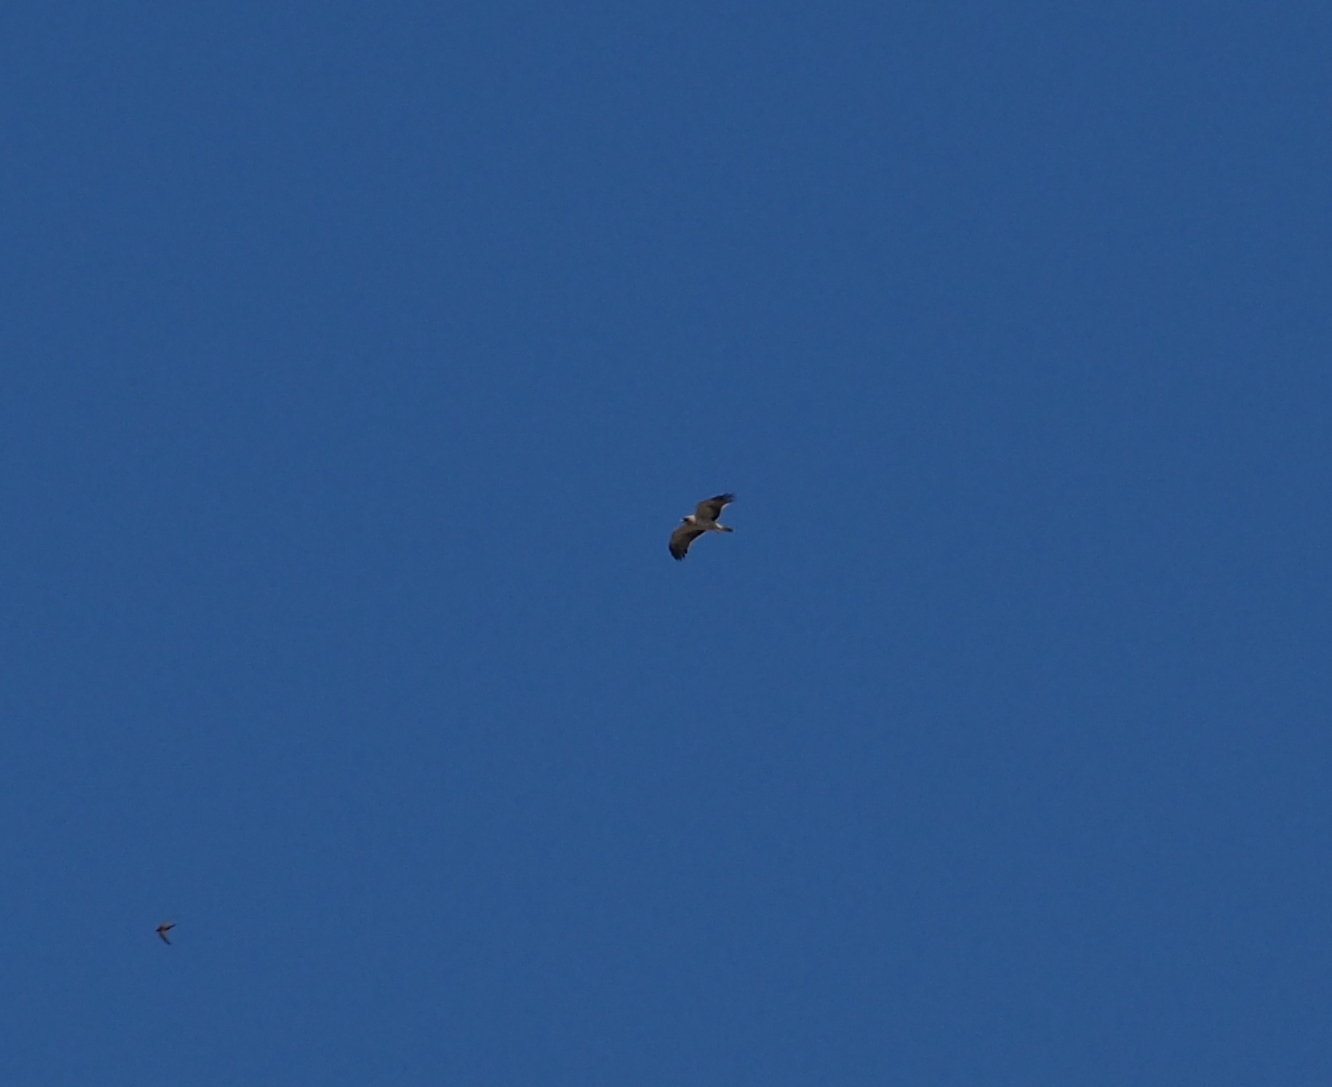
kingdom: Animalia
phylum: Chordata
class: Aves
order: Accipitriformes
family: Accipitridae
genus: Hieraaetus
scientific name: Hieraaetus pennatus
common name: Booted eagle
